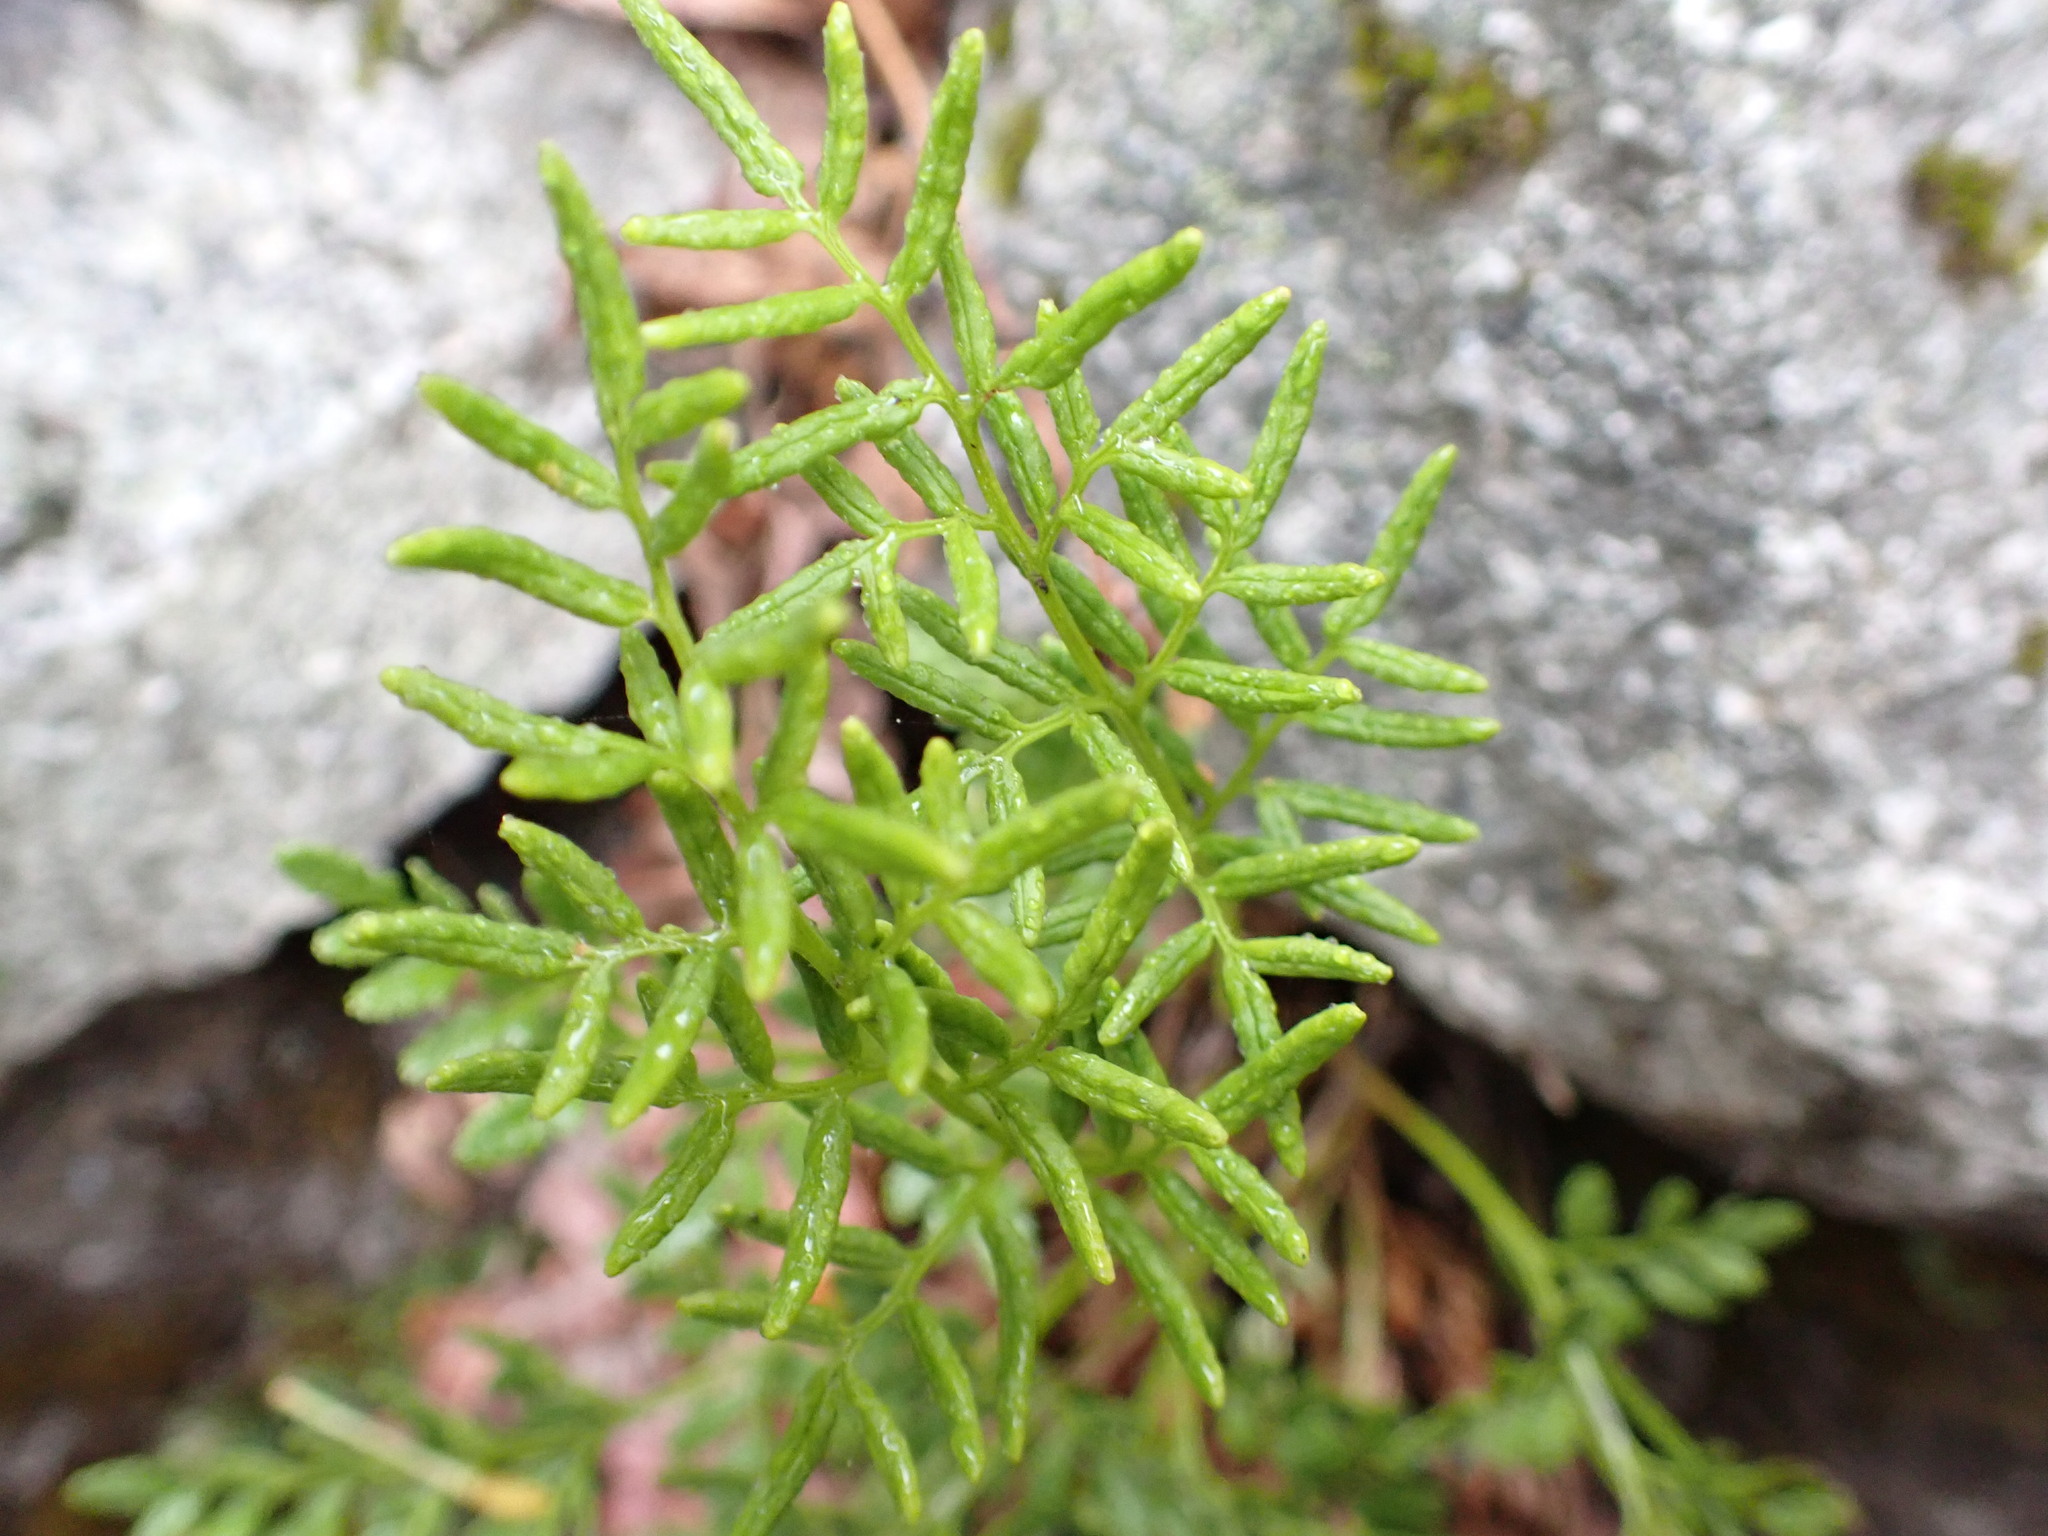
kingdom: Plantae
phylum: Tracheophyta
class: Polypodiopsida
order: Polypodiales
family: Pteridaceae
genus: Cryptogramma
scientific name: Cryptogramma acrostichoides
